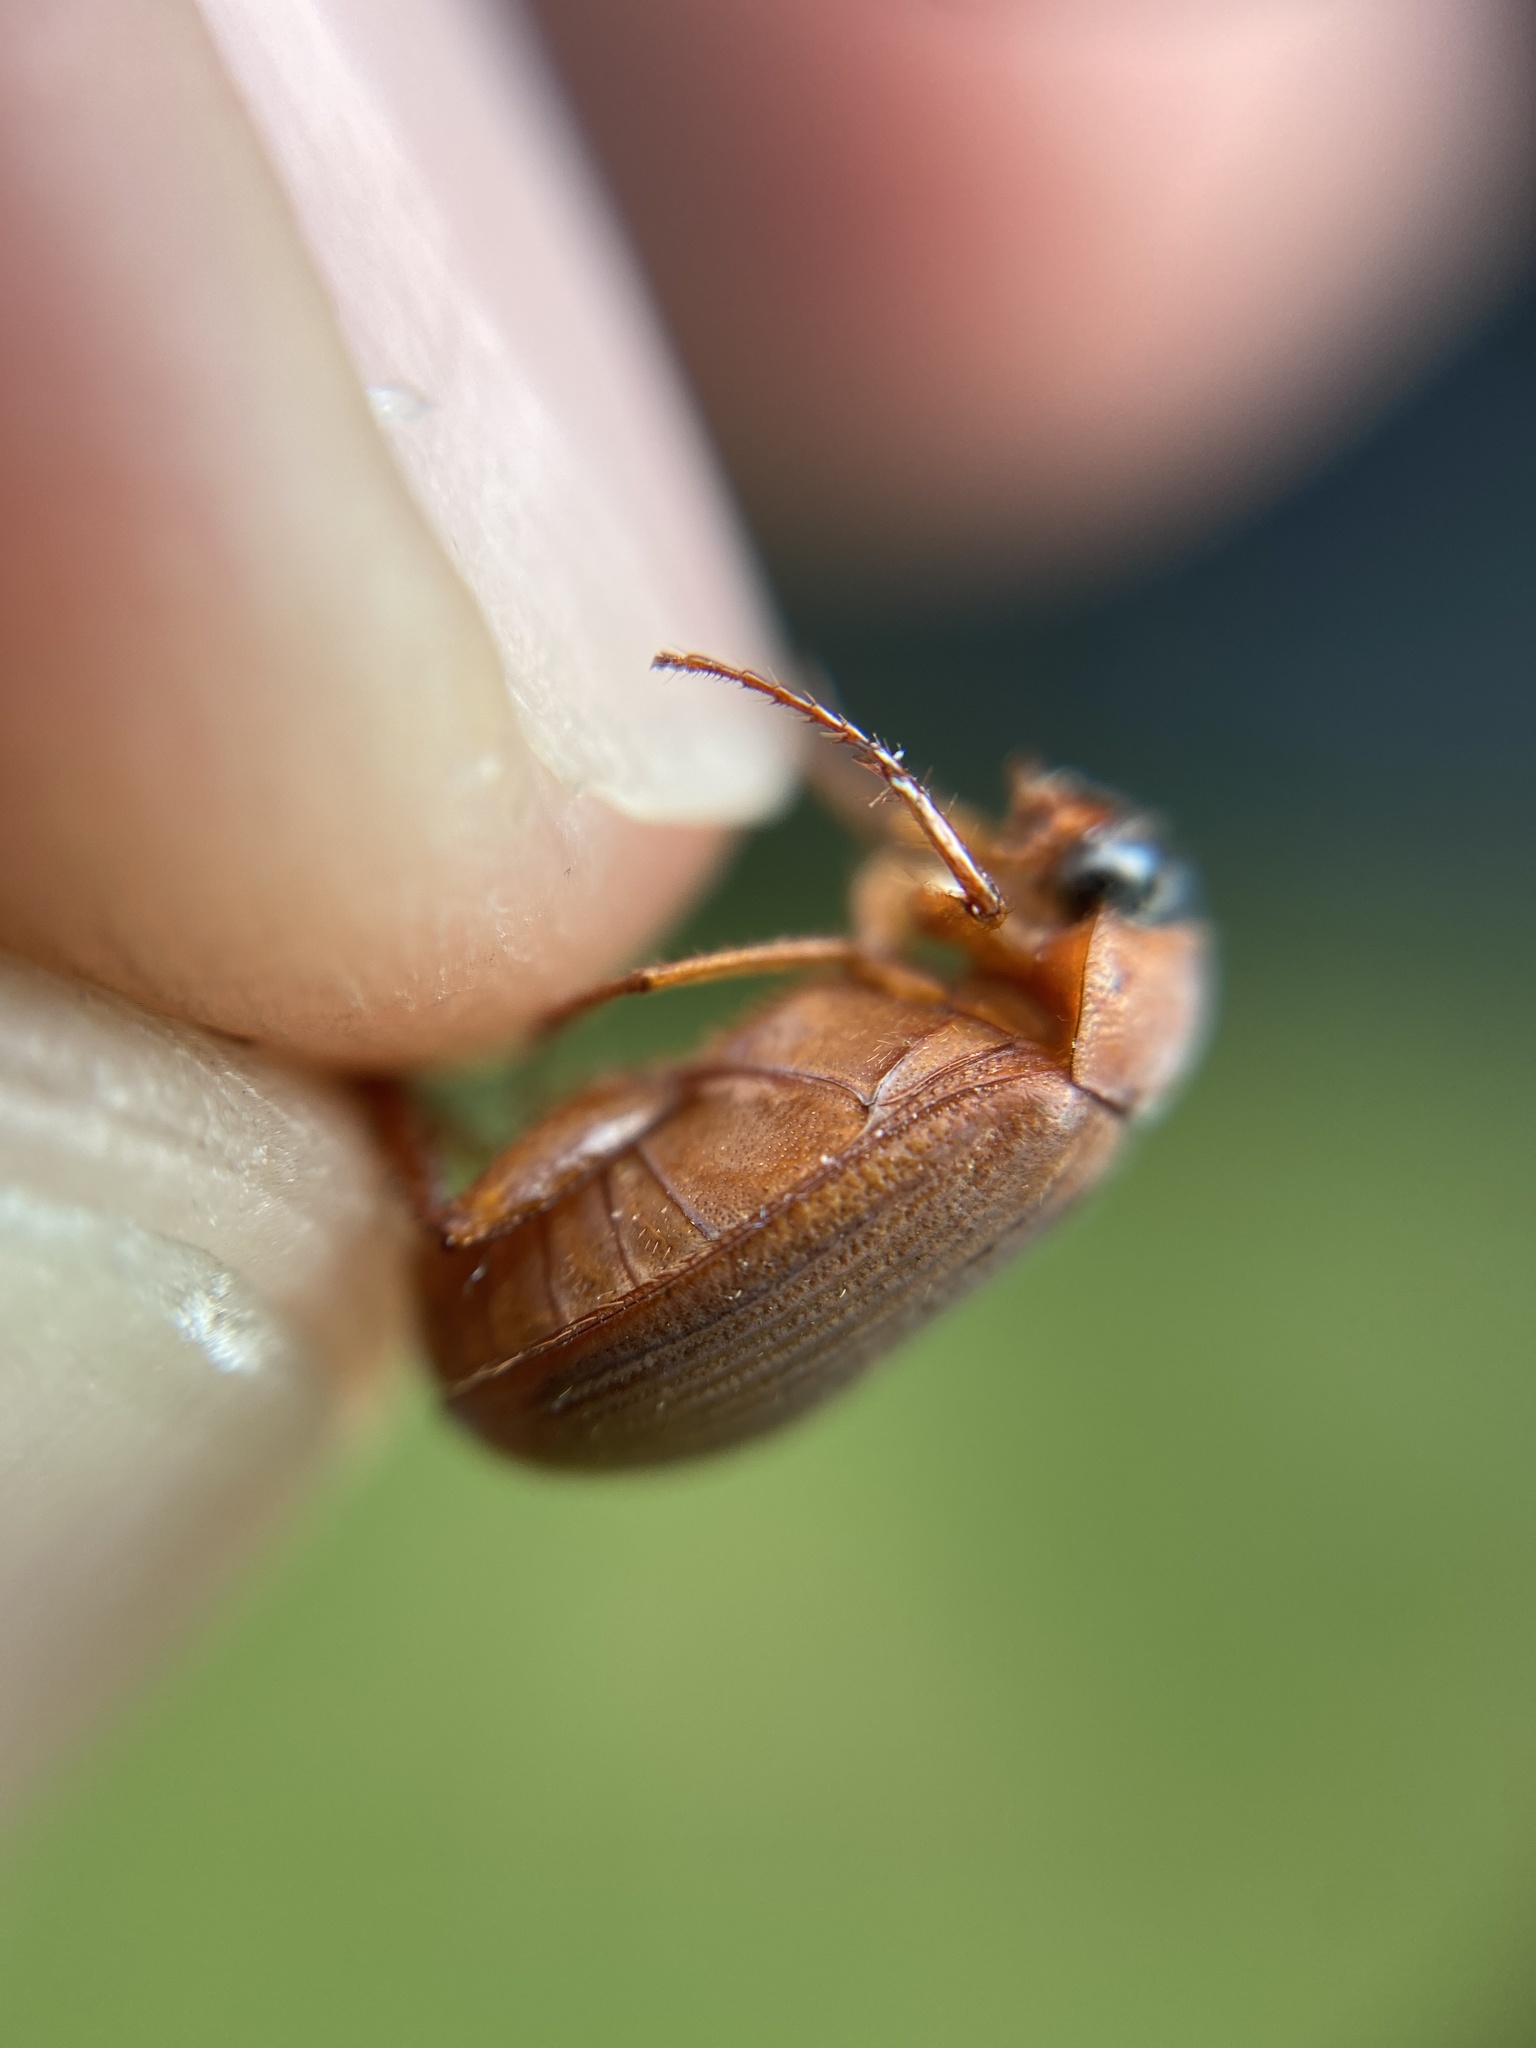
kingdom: Animalia
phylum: Arthropoda
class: Insecta
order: Coleoptera
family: Scarabaeidae
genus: Serica
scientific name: Serica brunnea
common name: Brown chafer
